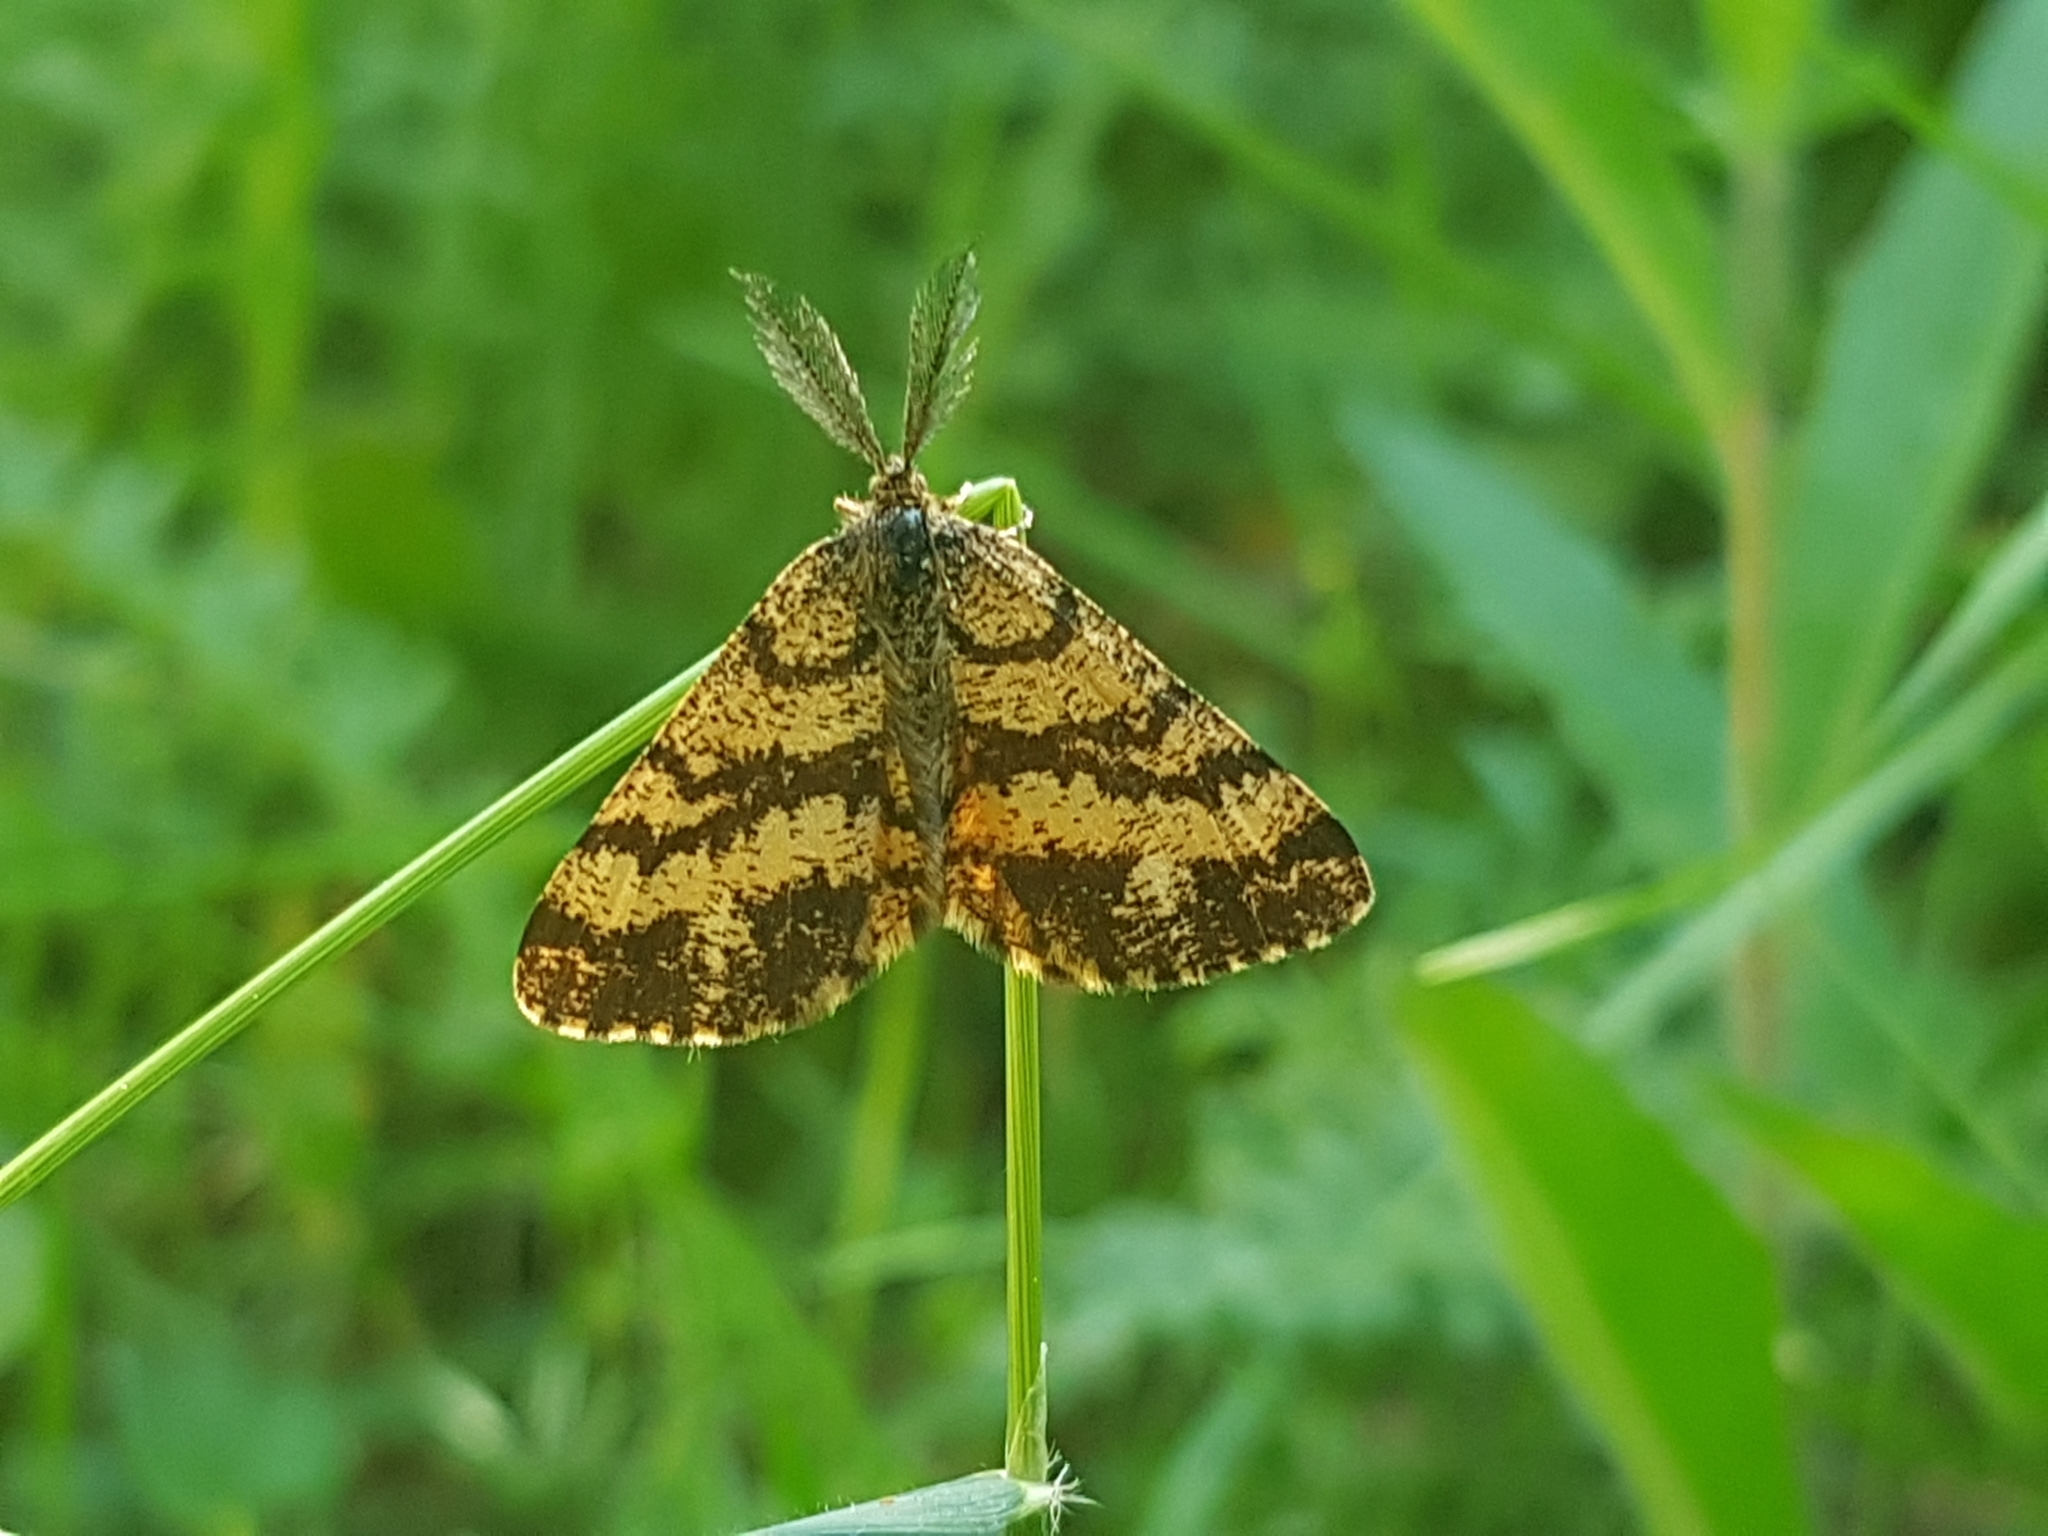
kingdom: Animalia
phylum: Arthropoda
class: Insecta
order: Lepidoptera
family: Geometridae
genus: Ematurga
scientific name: Ematurga atomaria
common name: Common heath
